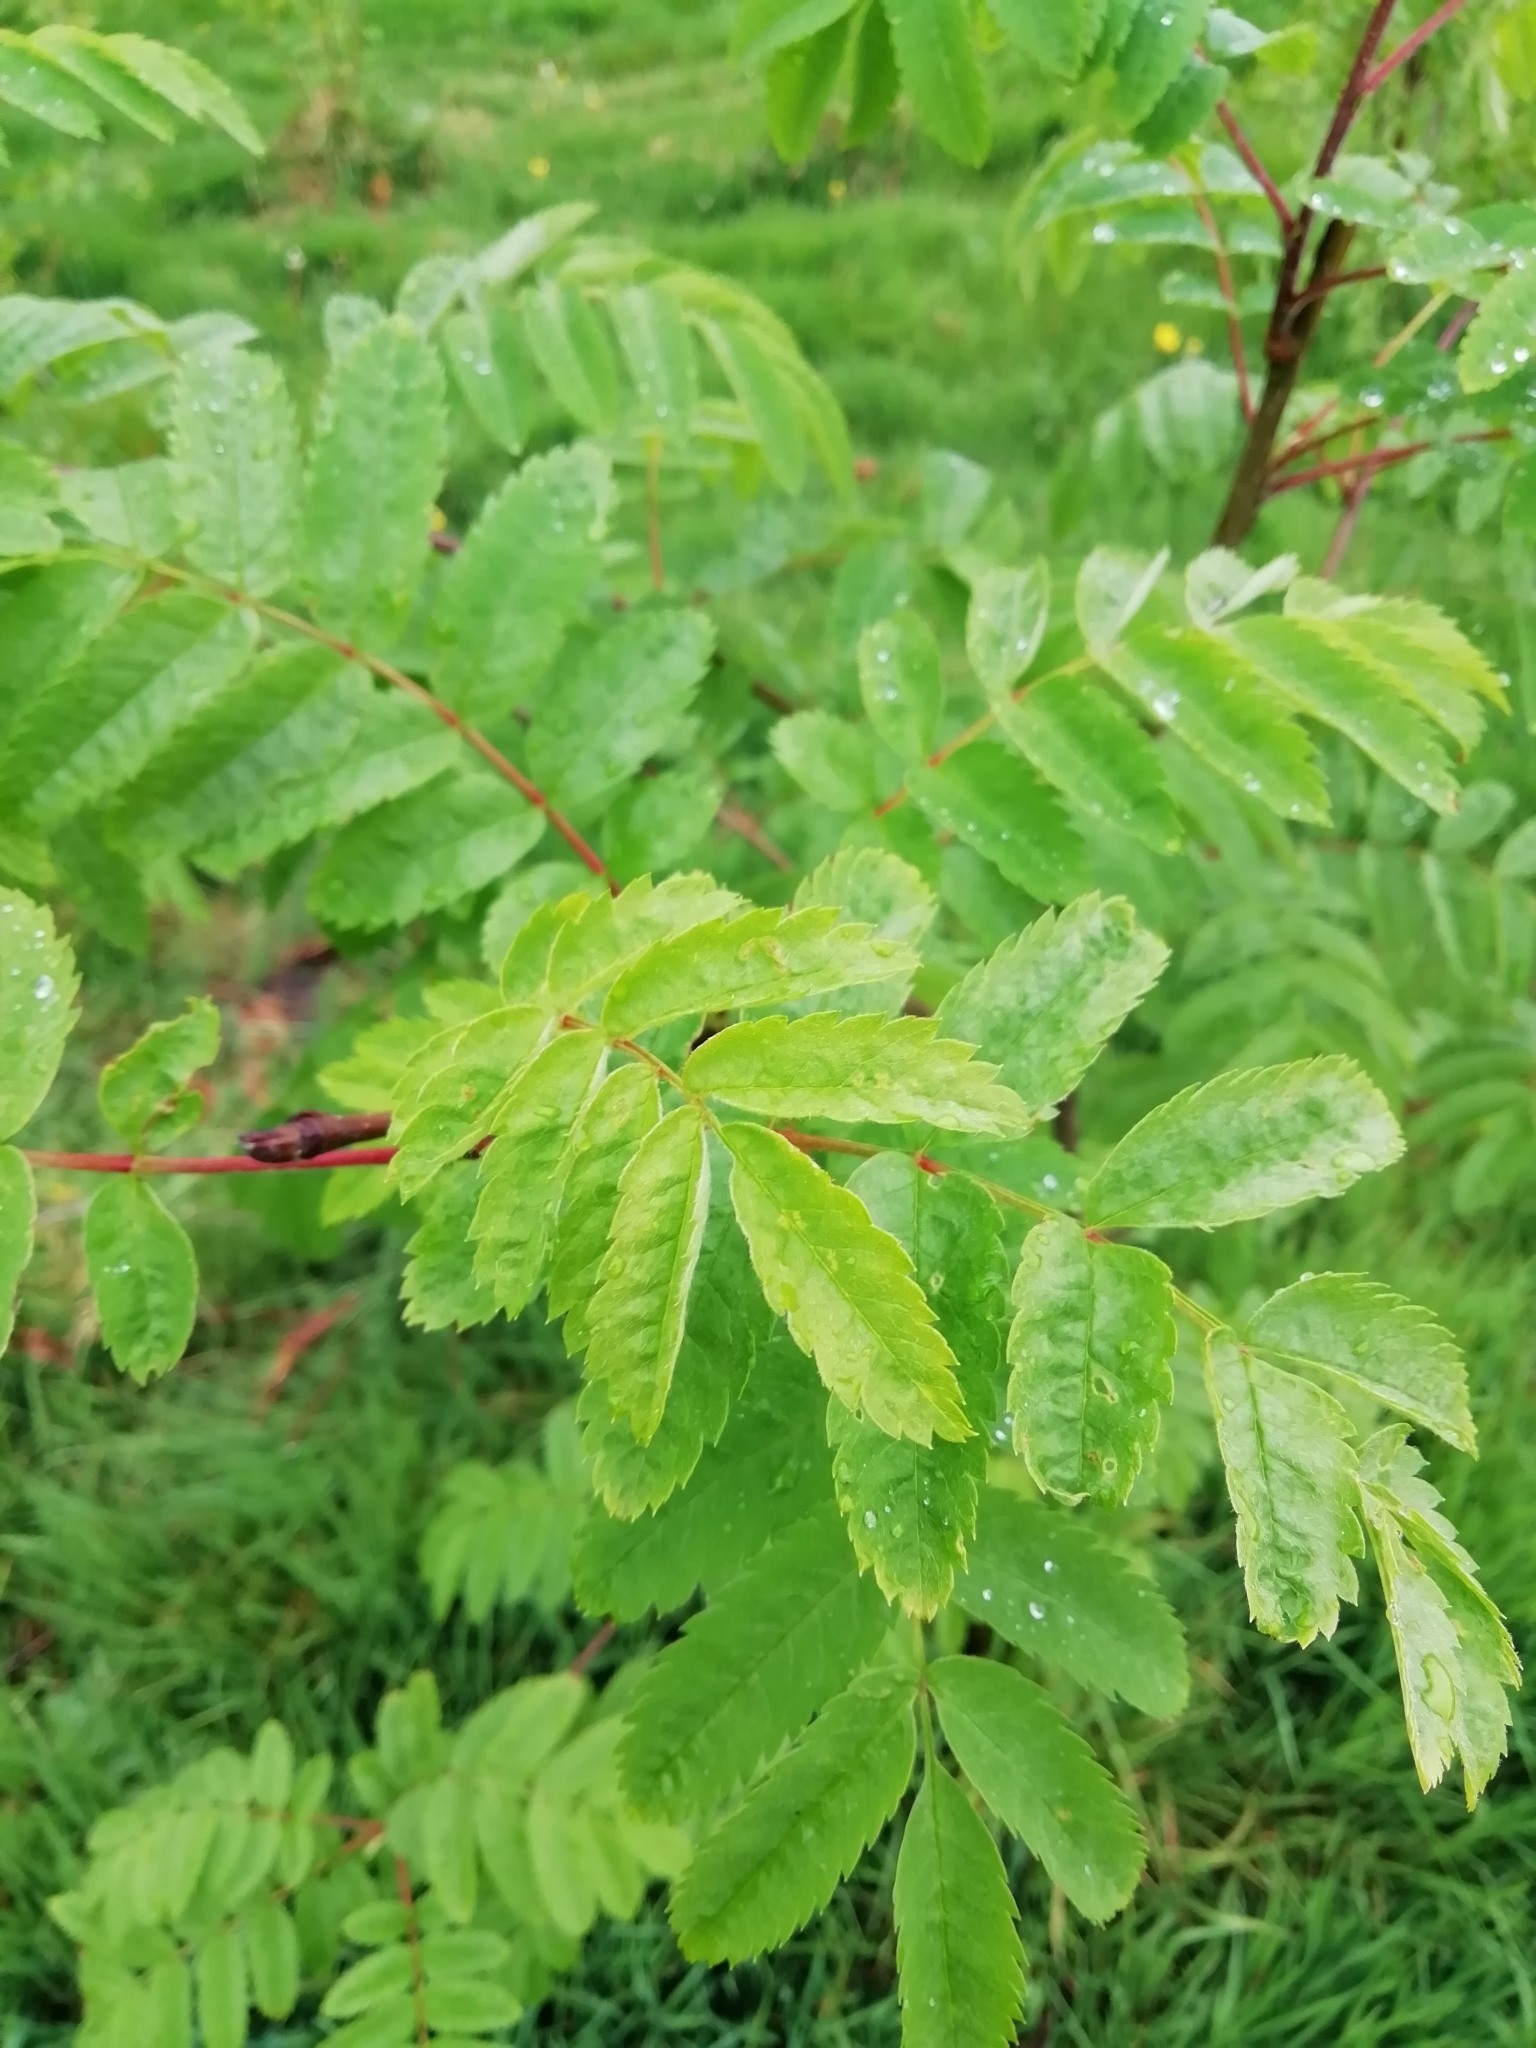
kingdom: Plantae
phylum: Tracheophyta
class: Magnoliopsida
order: Rosales
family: Rosaceae
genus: Sorbus
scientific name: Sorbus aucuparia
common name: Rowan
